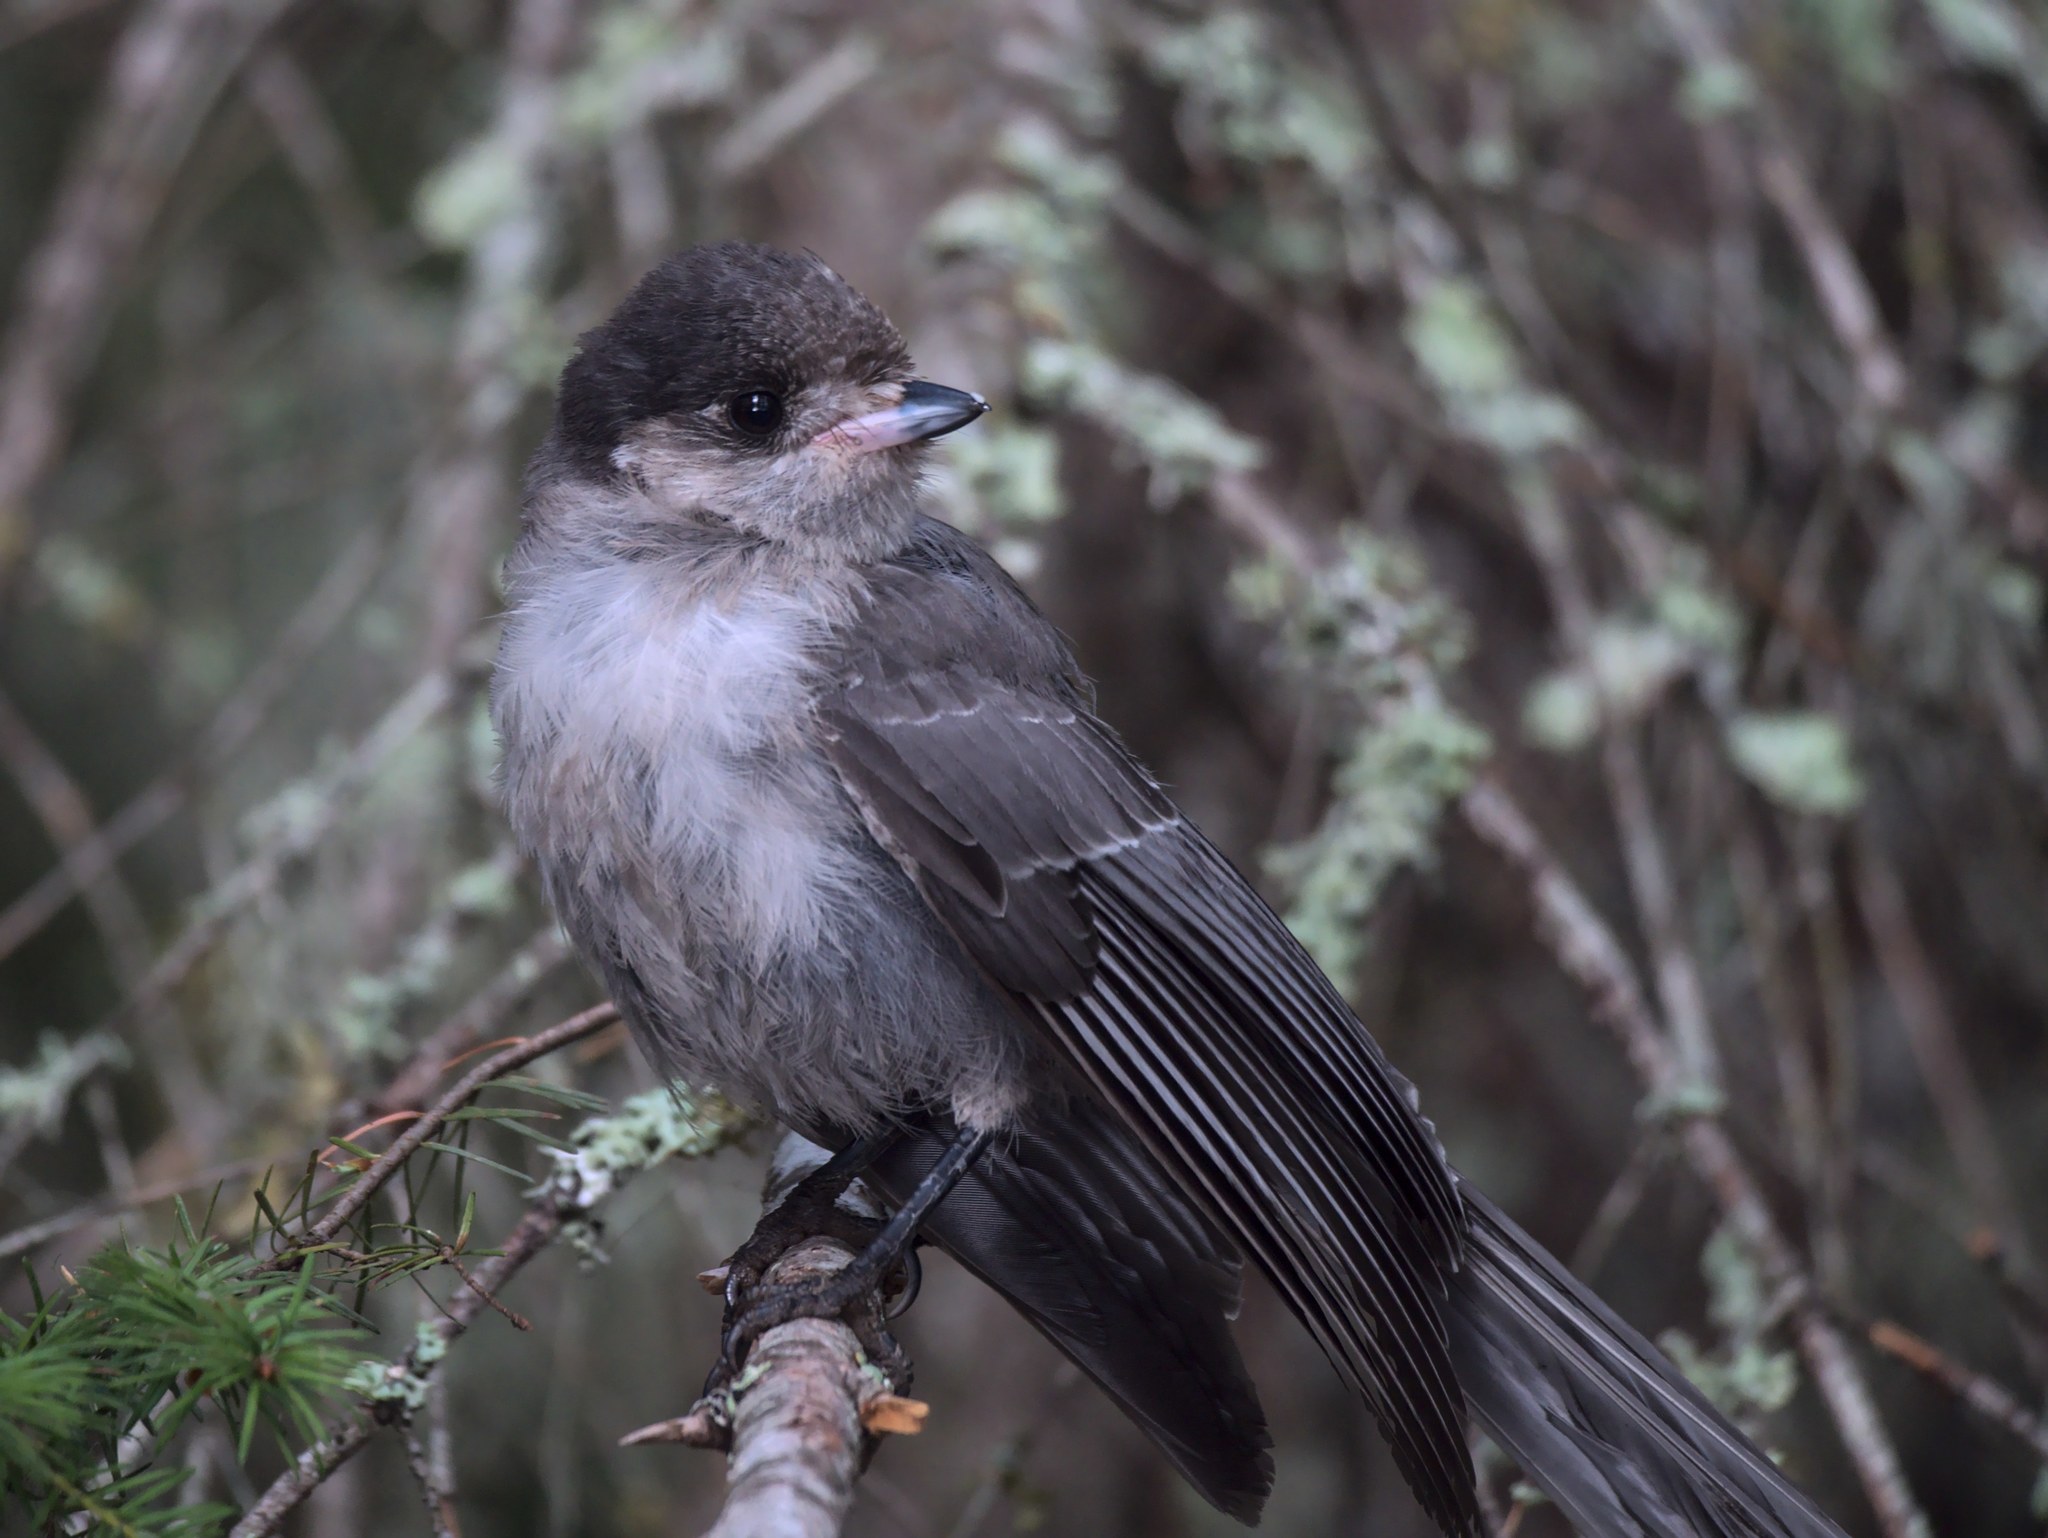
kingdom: Animalia
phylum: Chordata
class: Aves
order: Passeriformes
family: Corvidae
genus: Perisoreus
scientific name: Perisoreus canadensis
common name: Gray jay
